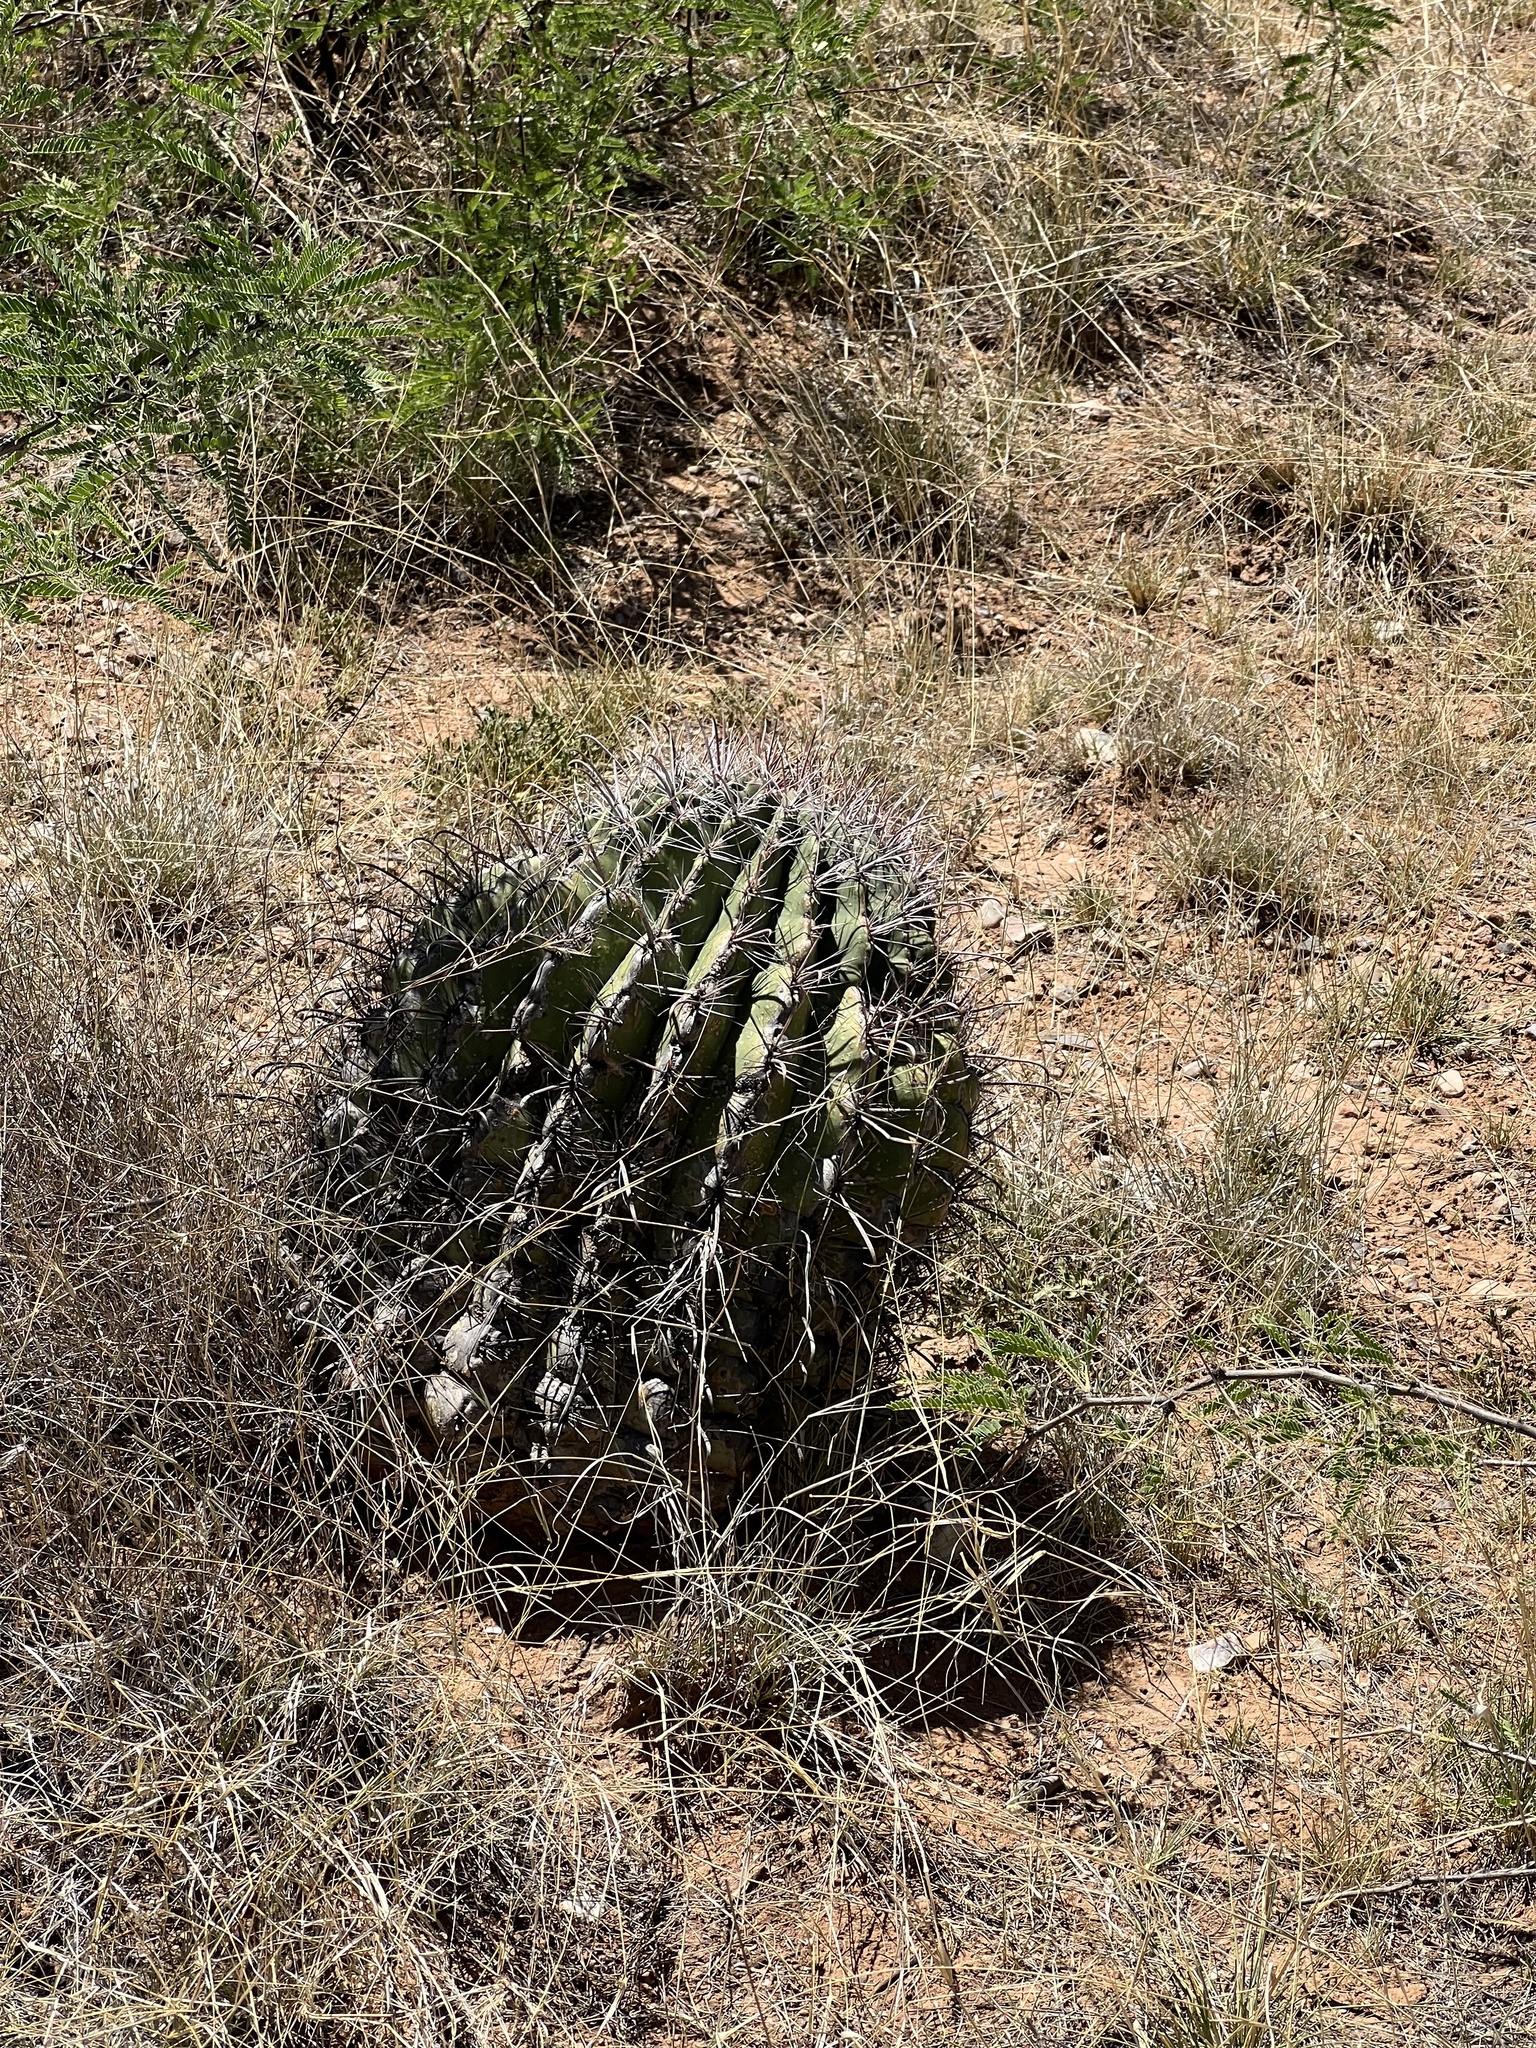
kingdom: Plantae
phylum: Tracheophyta
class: Magnoliopsida
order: Caryophyllales
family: Cactaceae
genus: Ferocactus
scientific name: Ferocactus wislizeni
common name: Candy barrel cactus
